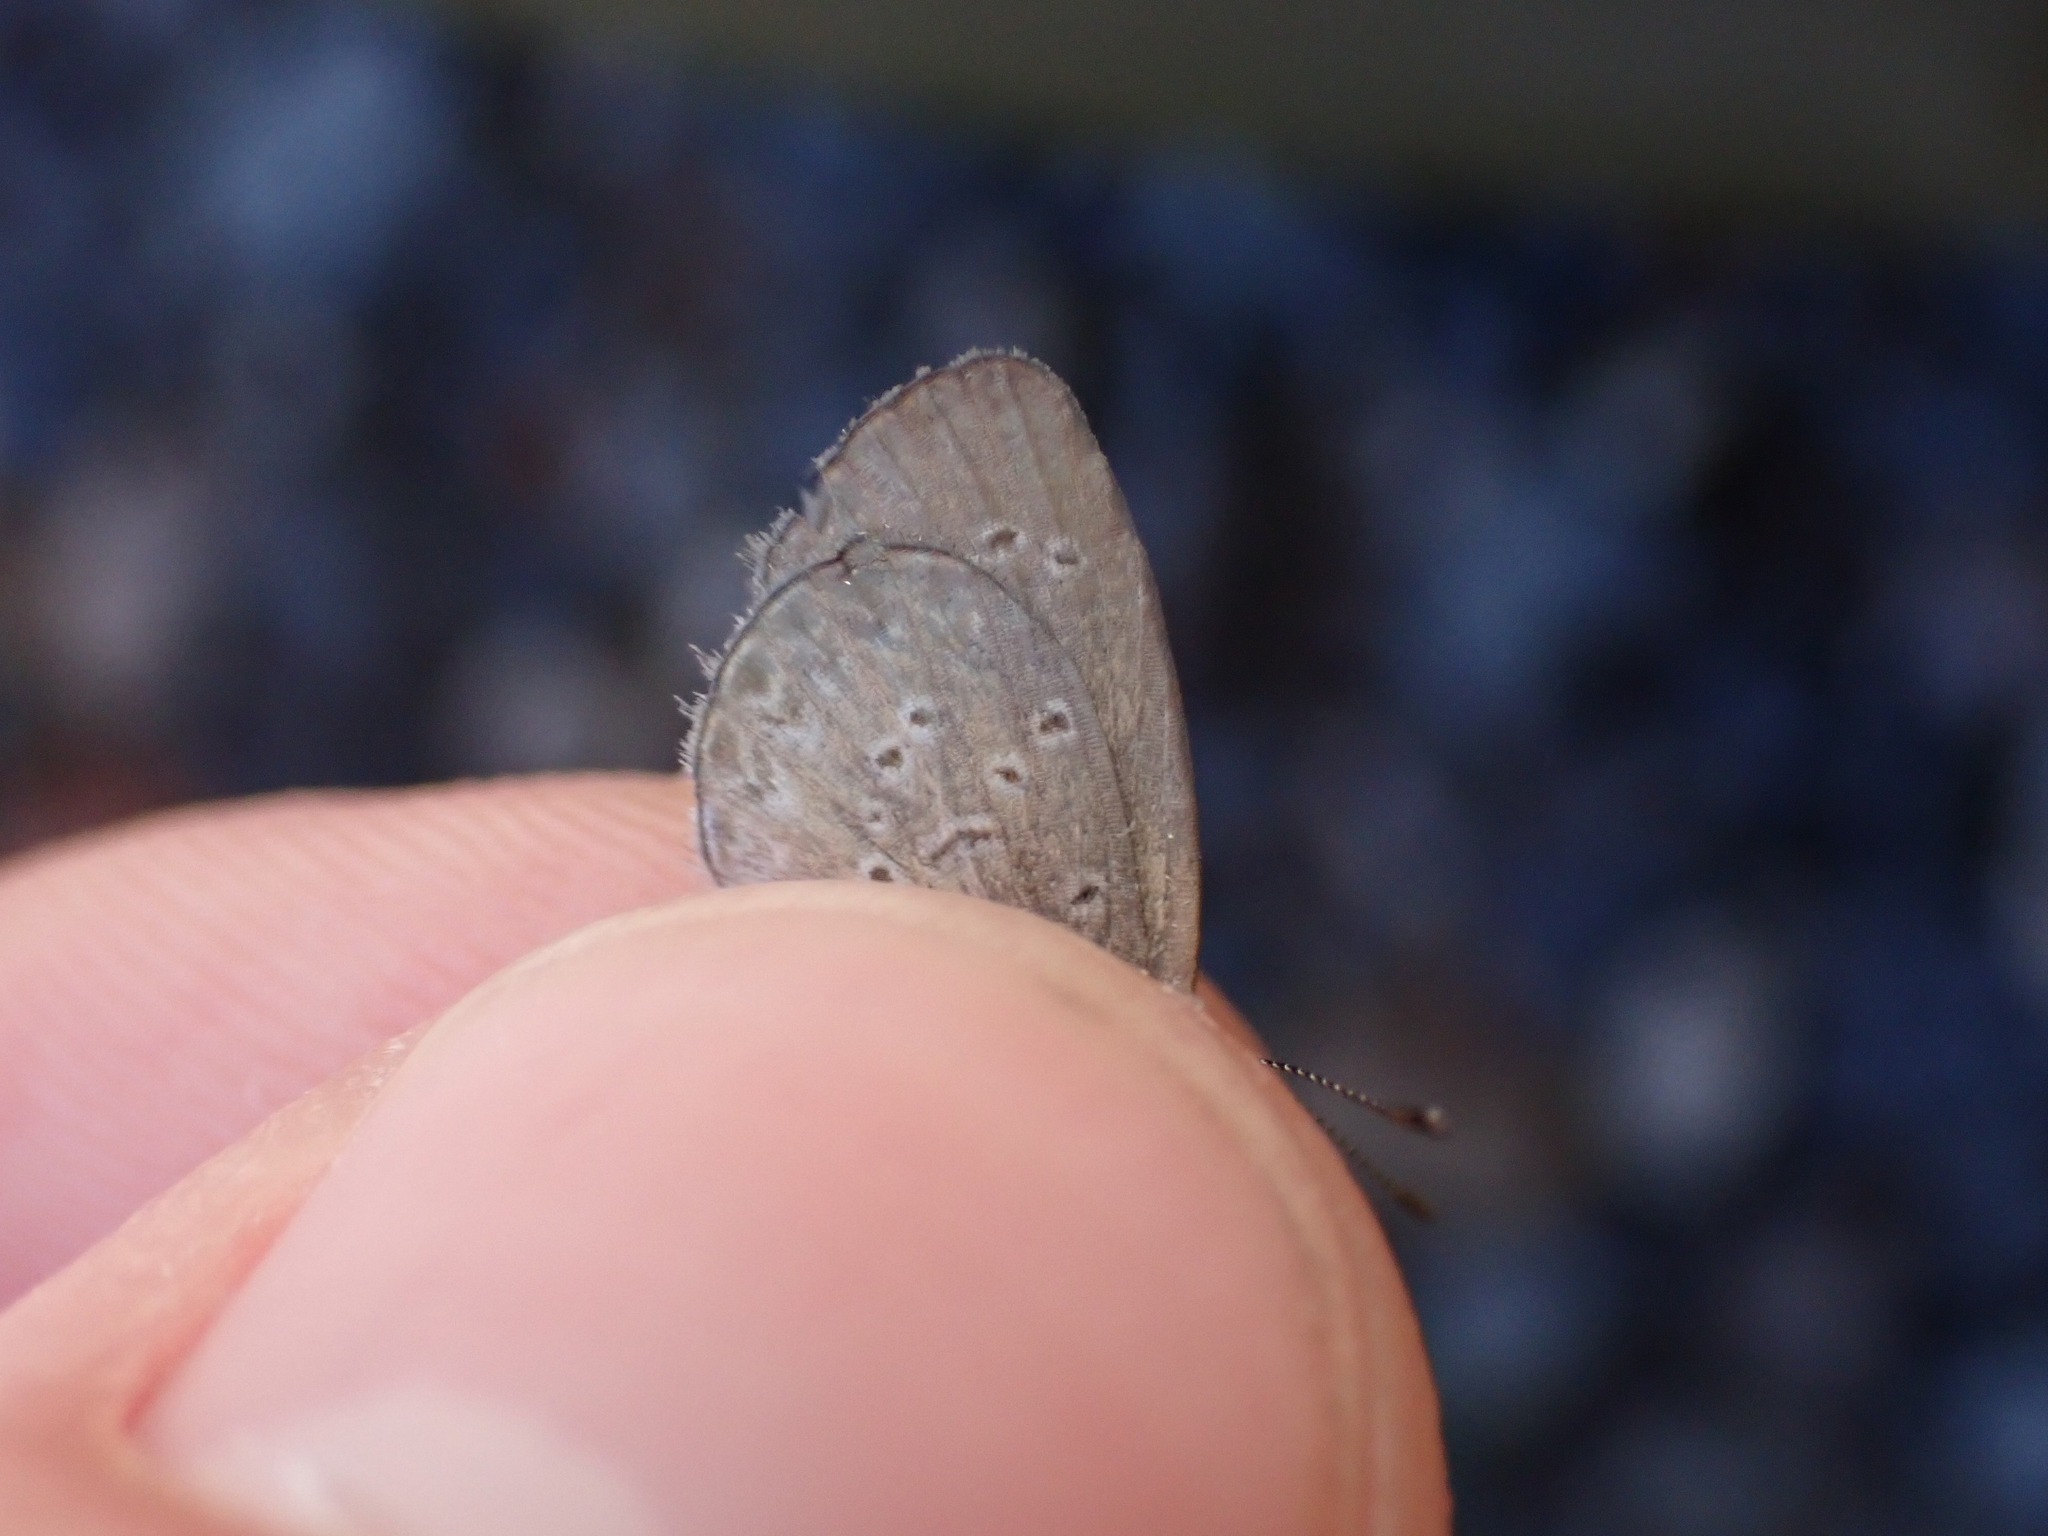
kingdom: Animalia
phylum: Arthropoda
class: Insecta
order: Lepidoptera
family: Lycaenidae
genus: Zizina
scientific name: Zizina otis
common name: Lesser grass blue
